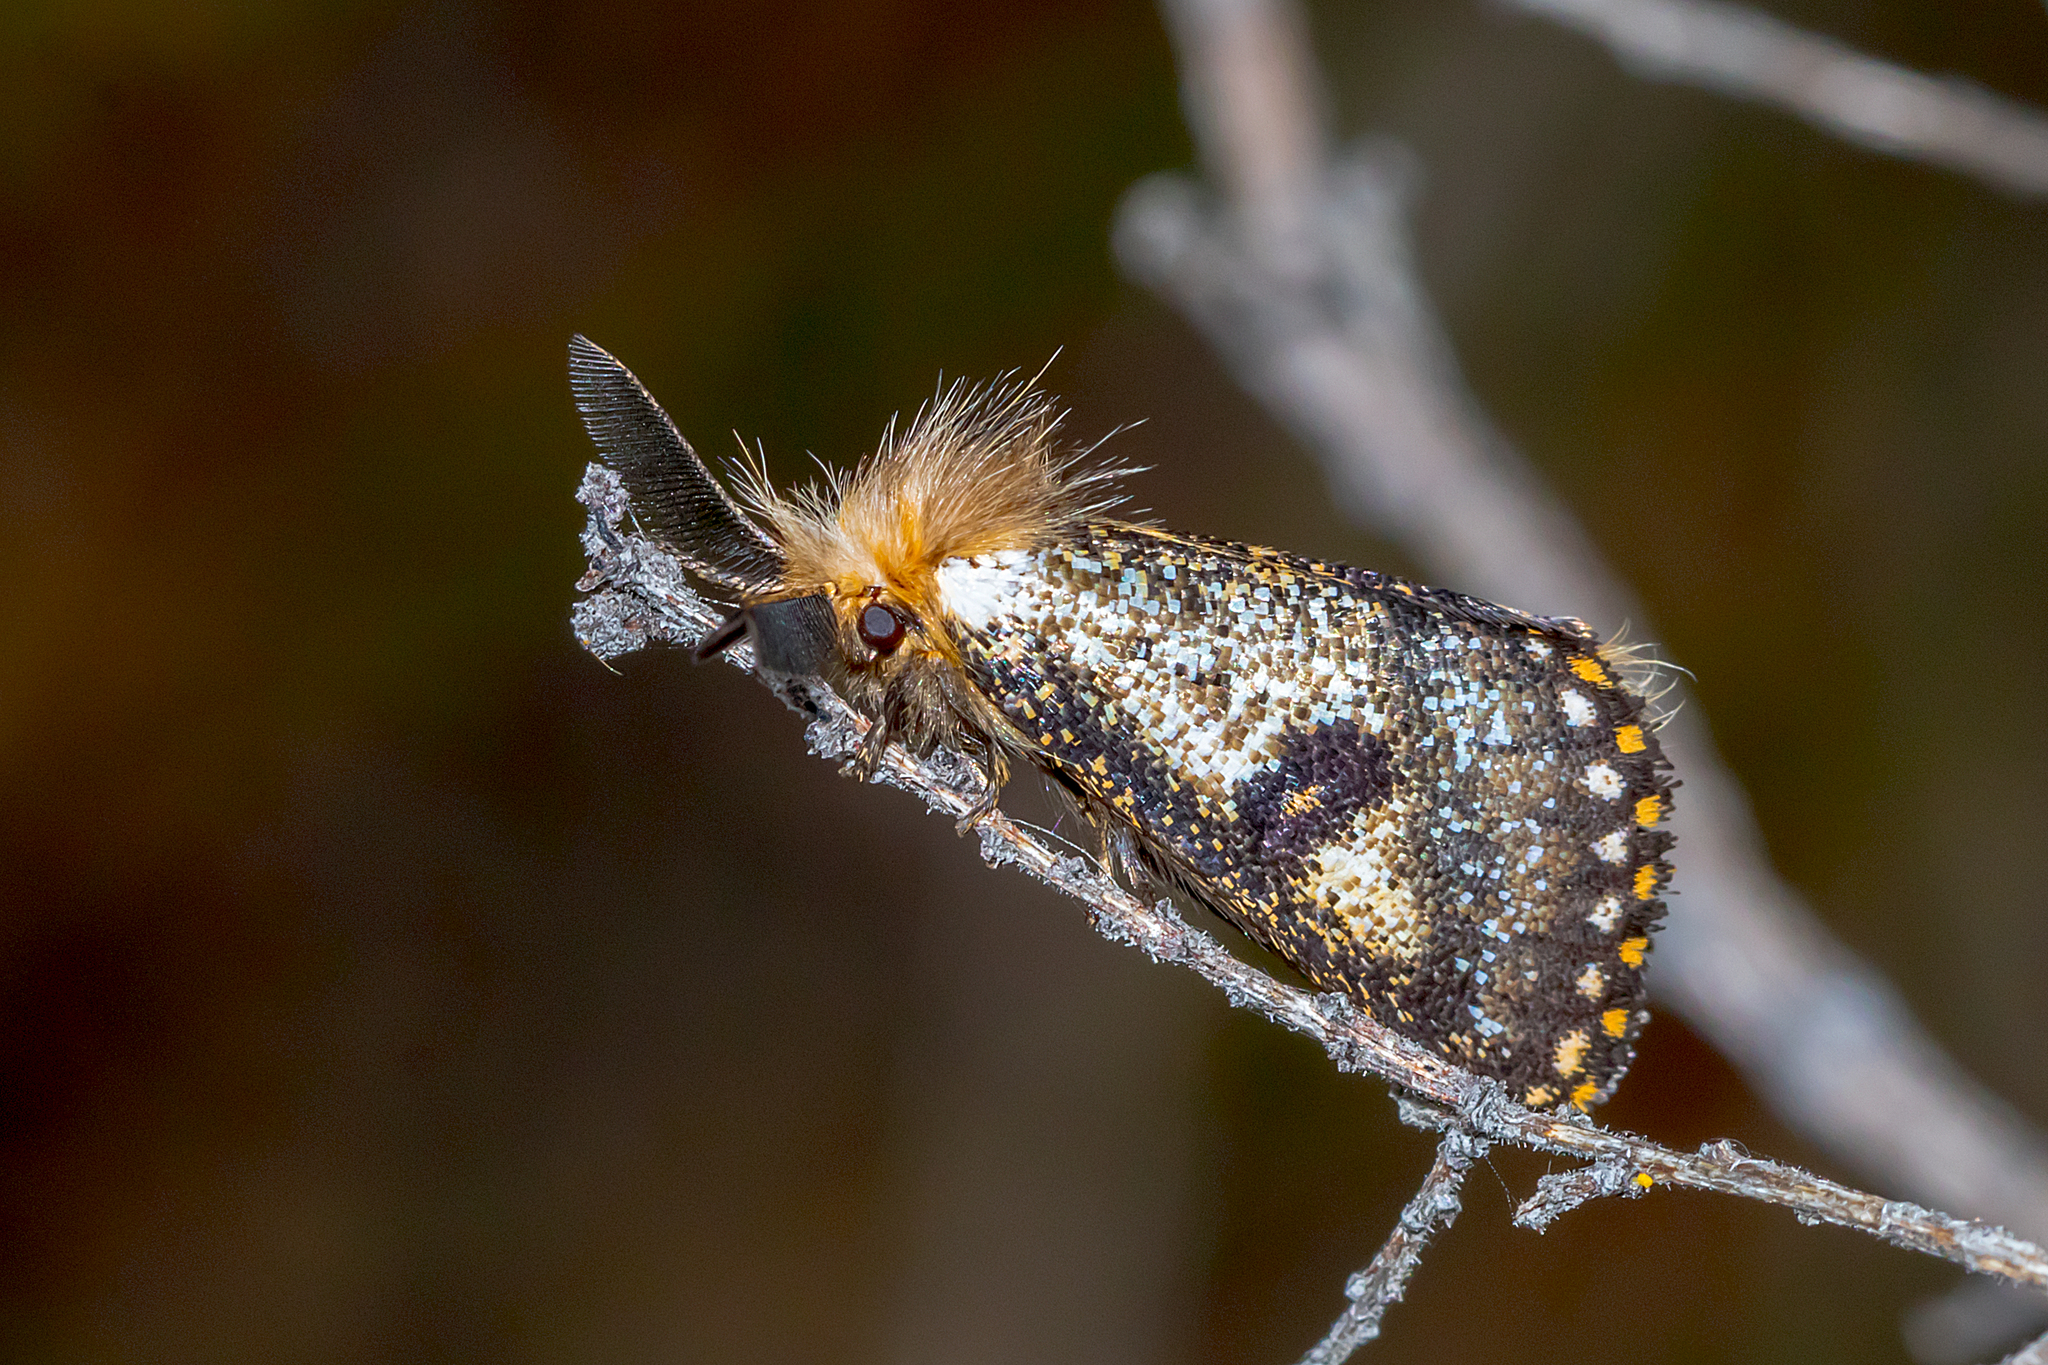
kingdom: Animalia
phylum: Arthropoda
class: Insecta
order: Lepidoptera
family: Notodontidae
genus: Epicoma
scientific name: Epicoma contristis
